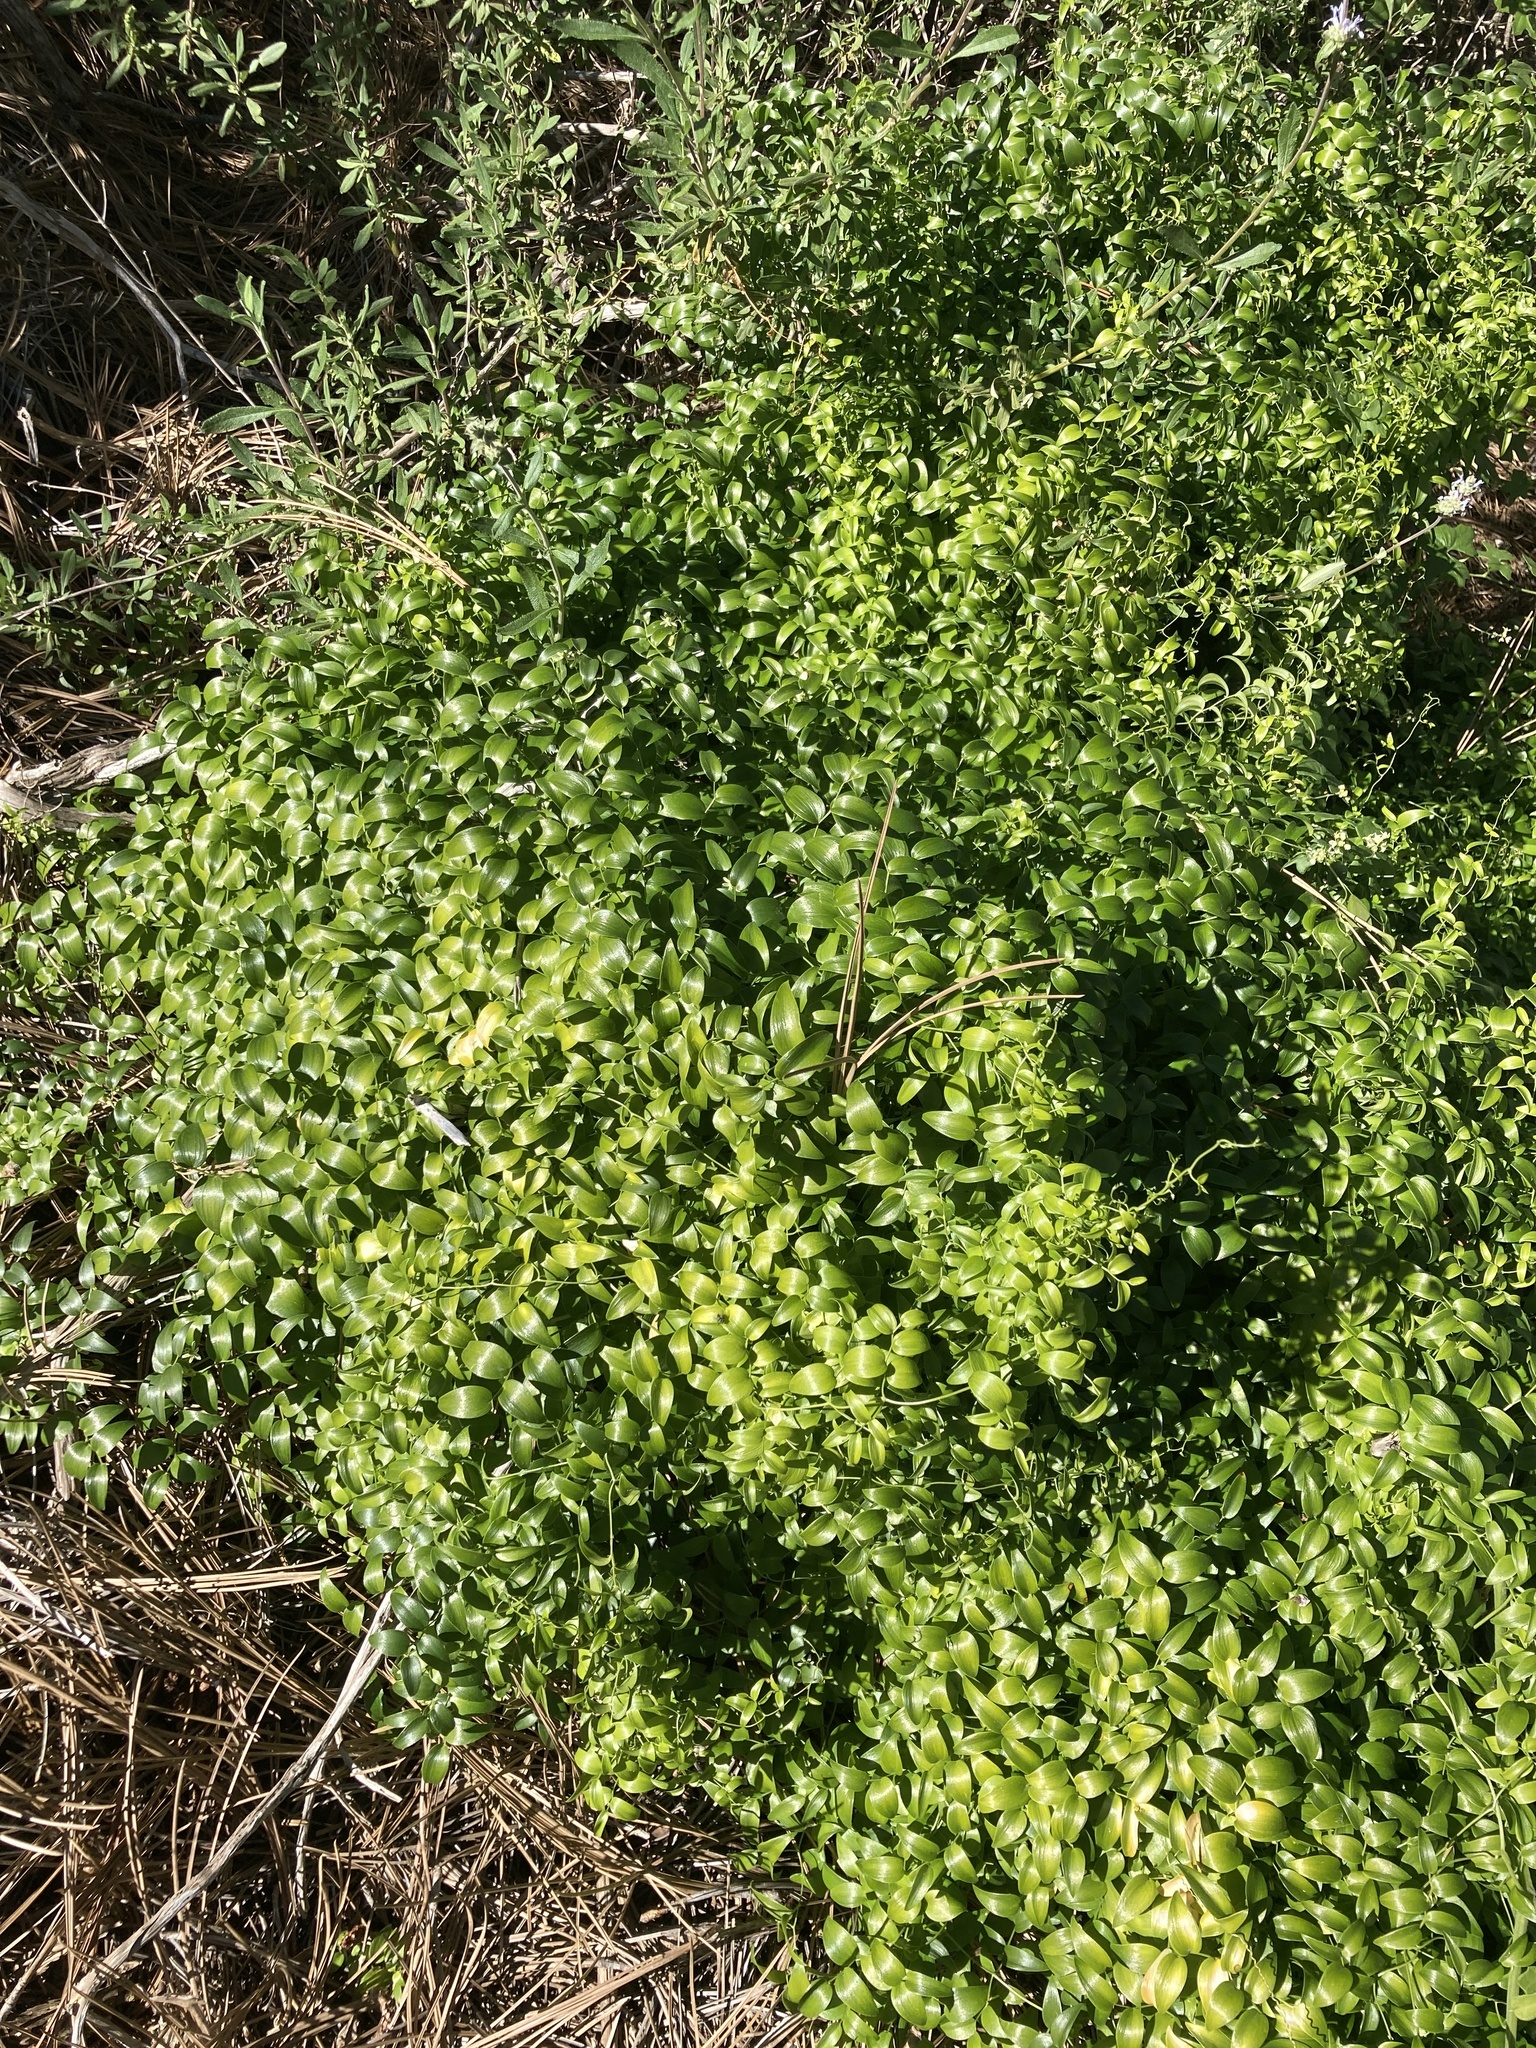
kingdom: Plantae
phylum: Tracheophyta
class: Liliopsida
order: Asparagales
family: Asparagaceae
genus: Asparagus
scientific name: Asparagus asparagoides
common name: African asparagus fern
